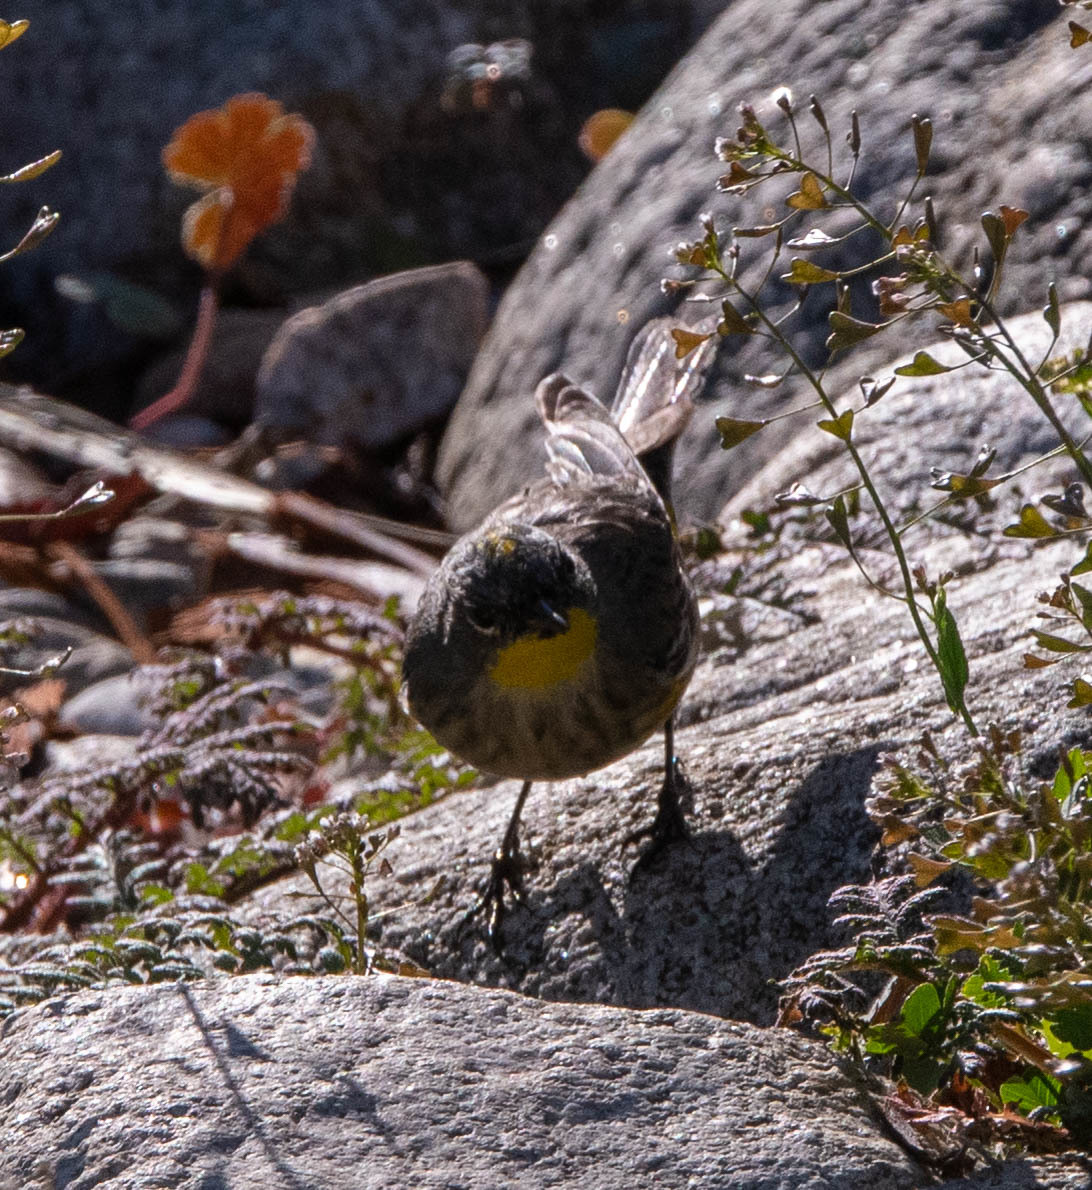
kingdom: Animalia
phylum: Chordata
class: Aves
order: Passeriformes
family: Parulidae
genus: Setophaga
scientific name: Setophaga auduboni
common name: Audubon's warbler
